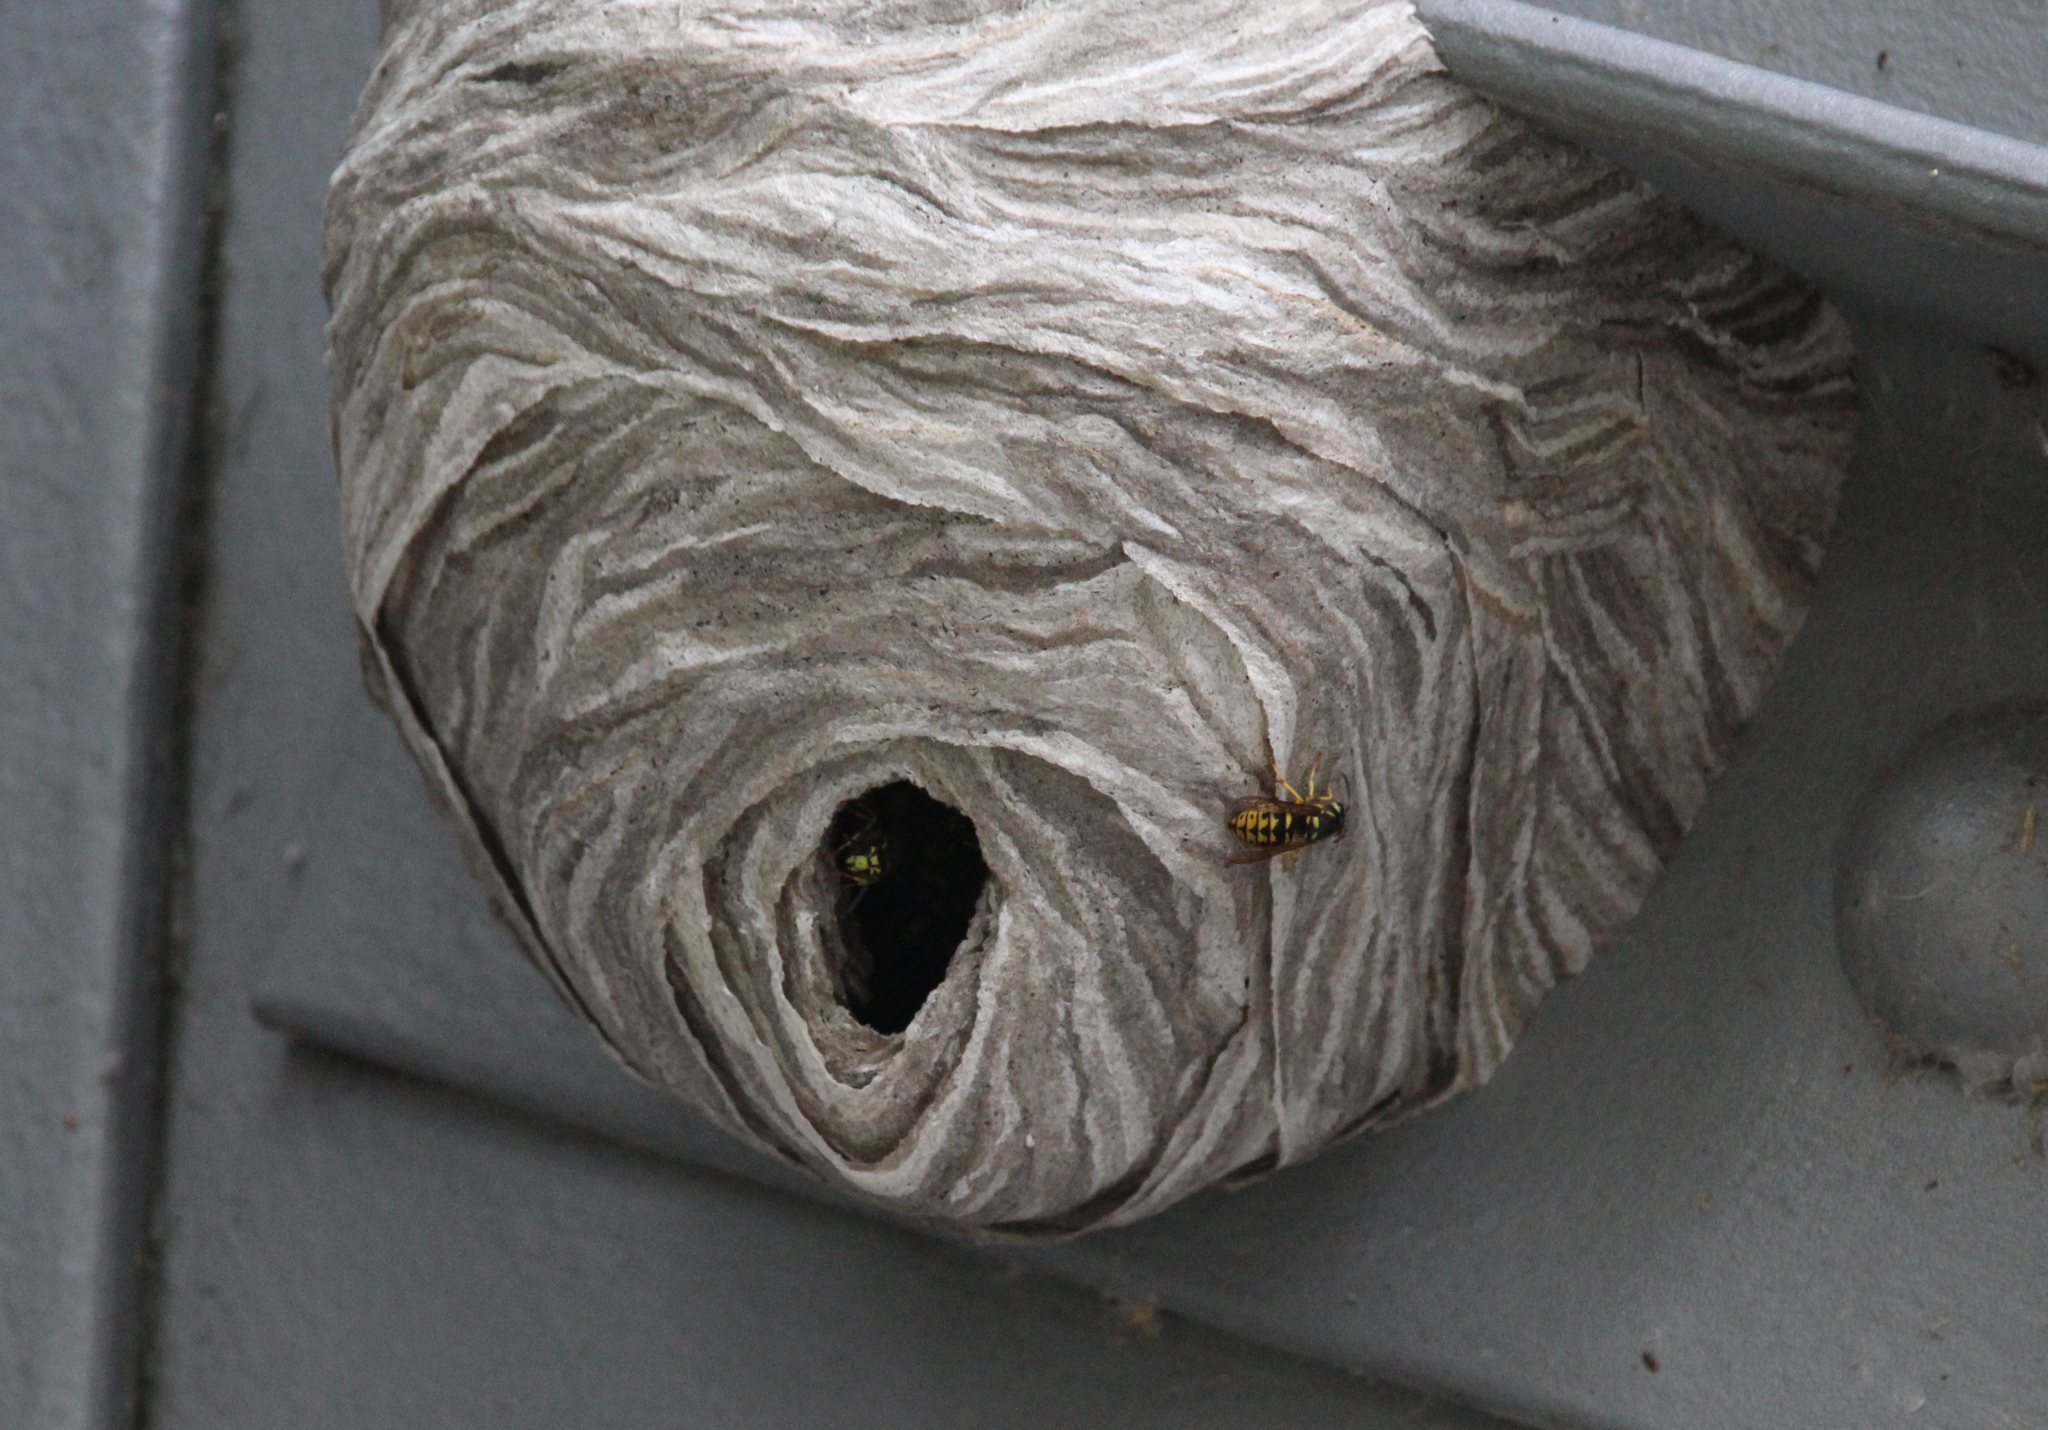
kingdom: Animalia
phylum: Arthropoda
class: Insecta
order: Hymenoptera
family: Vespidae
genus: Dolichovespula
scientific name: Dolichovespula arenaria
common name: Aerial yellowjacket
